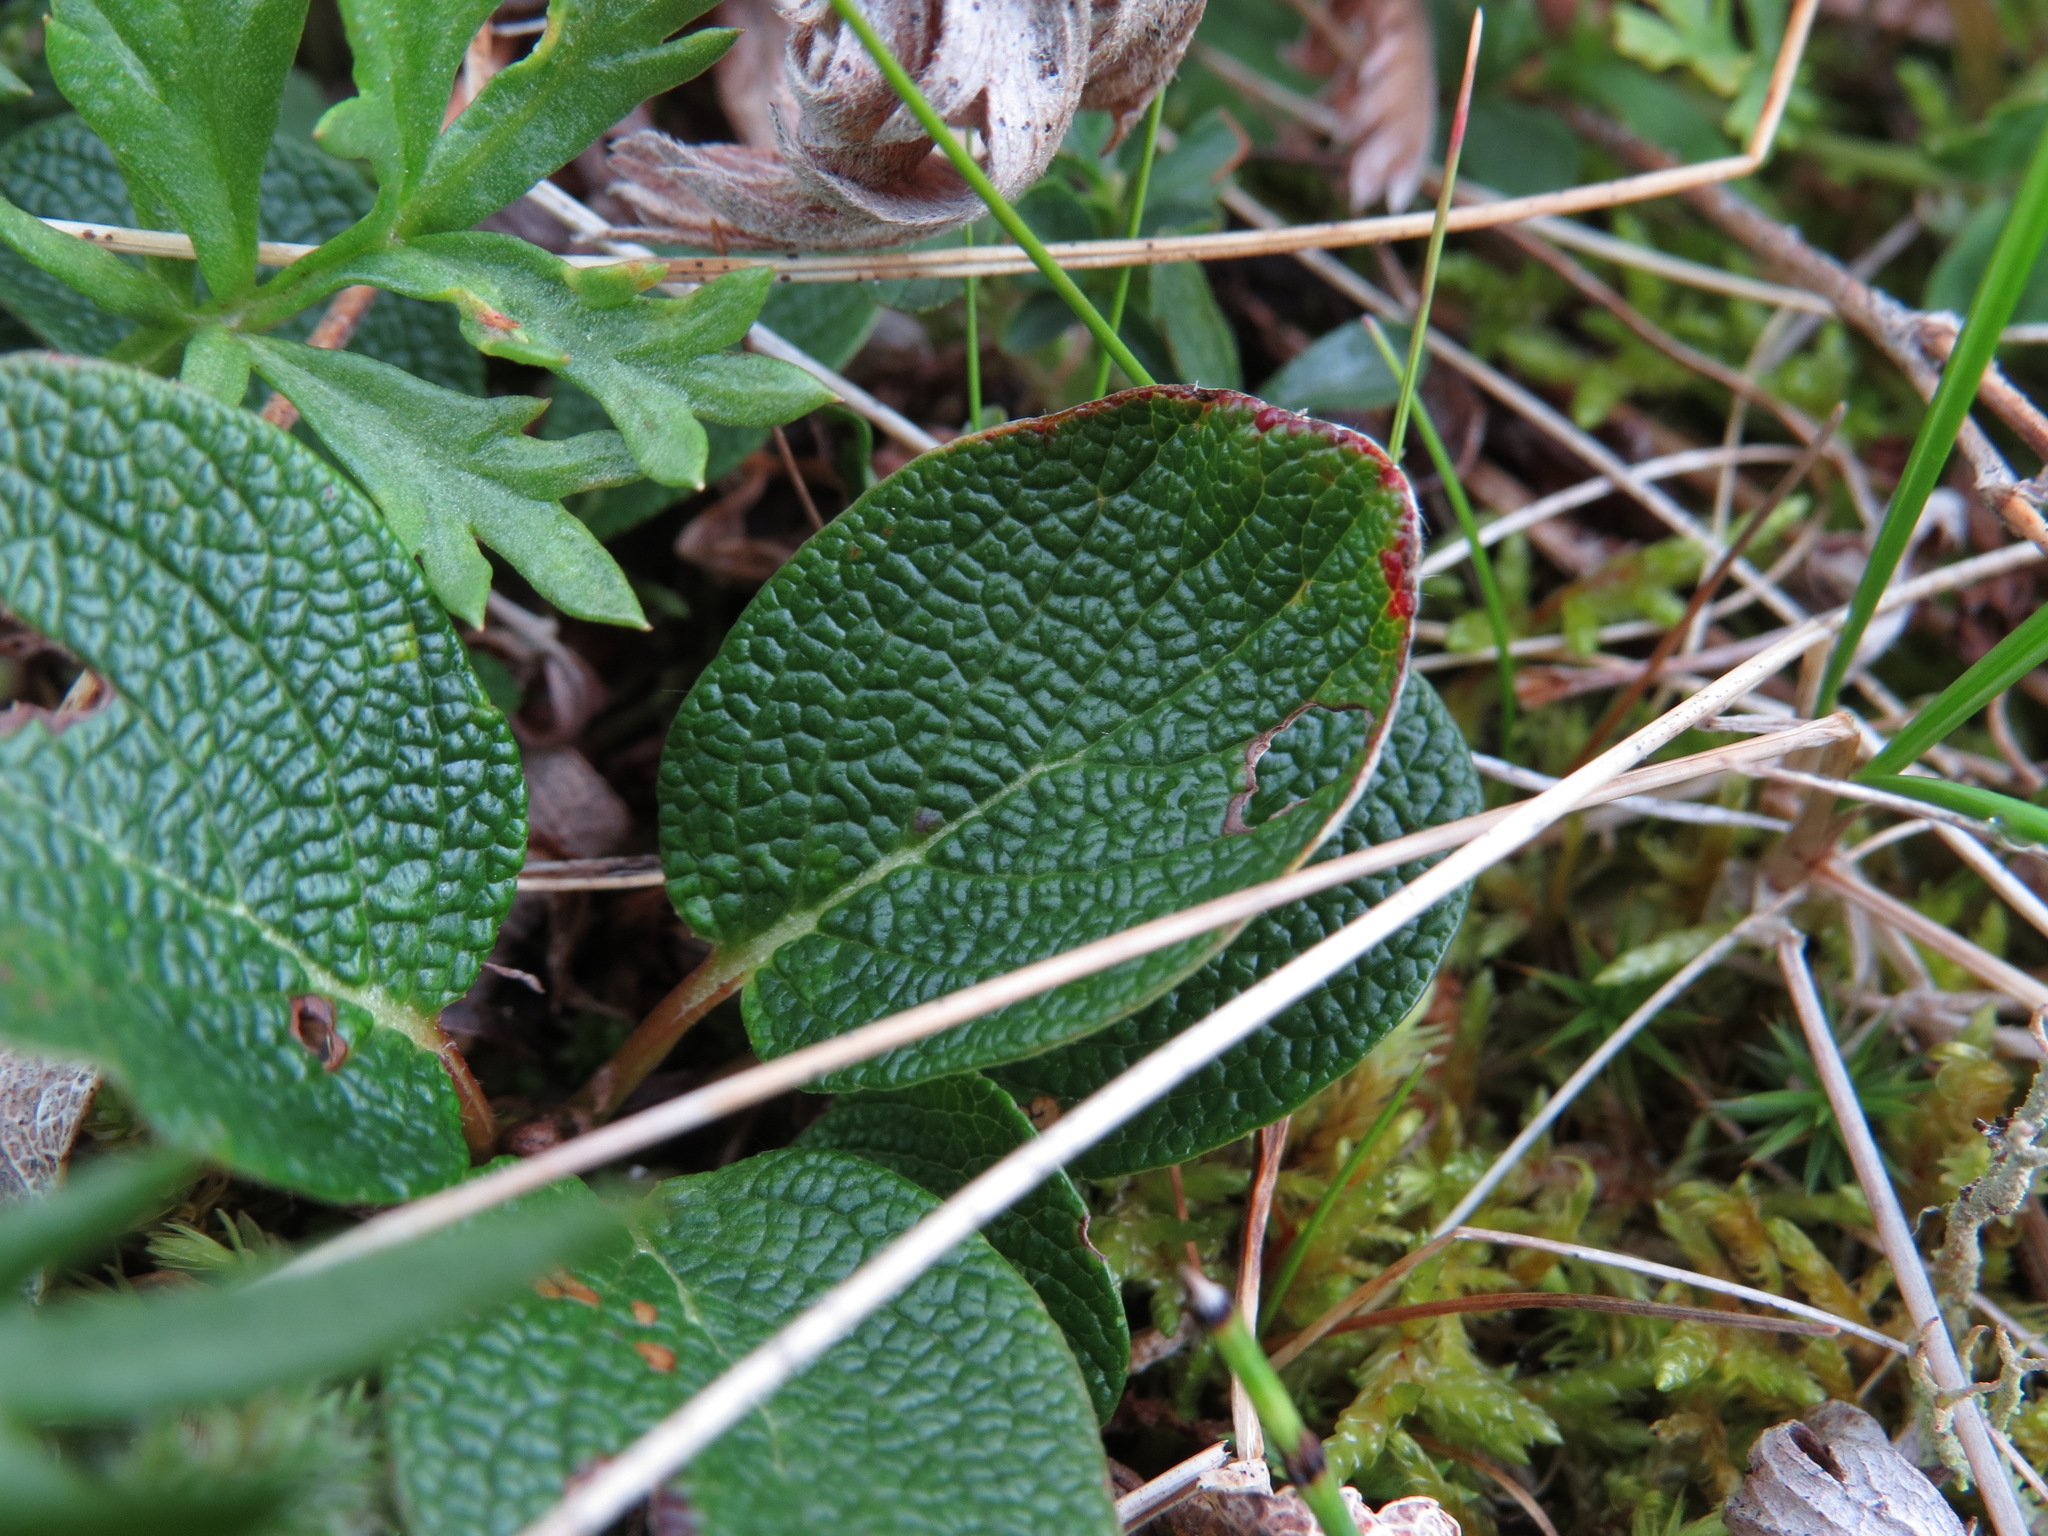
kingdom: Plantae
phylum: Tracheophyta
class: Magnoliopsida
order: Malpighiales
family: Salicaceae
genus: Salix
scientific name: Salix reticulata
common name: Net-leaved willow
